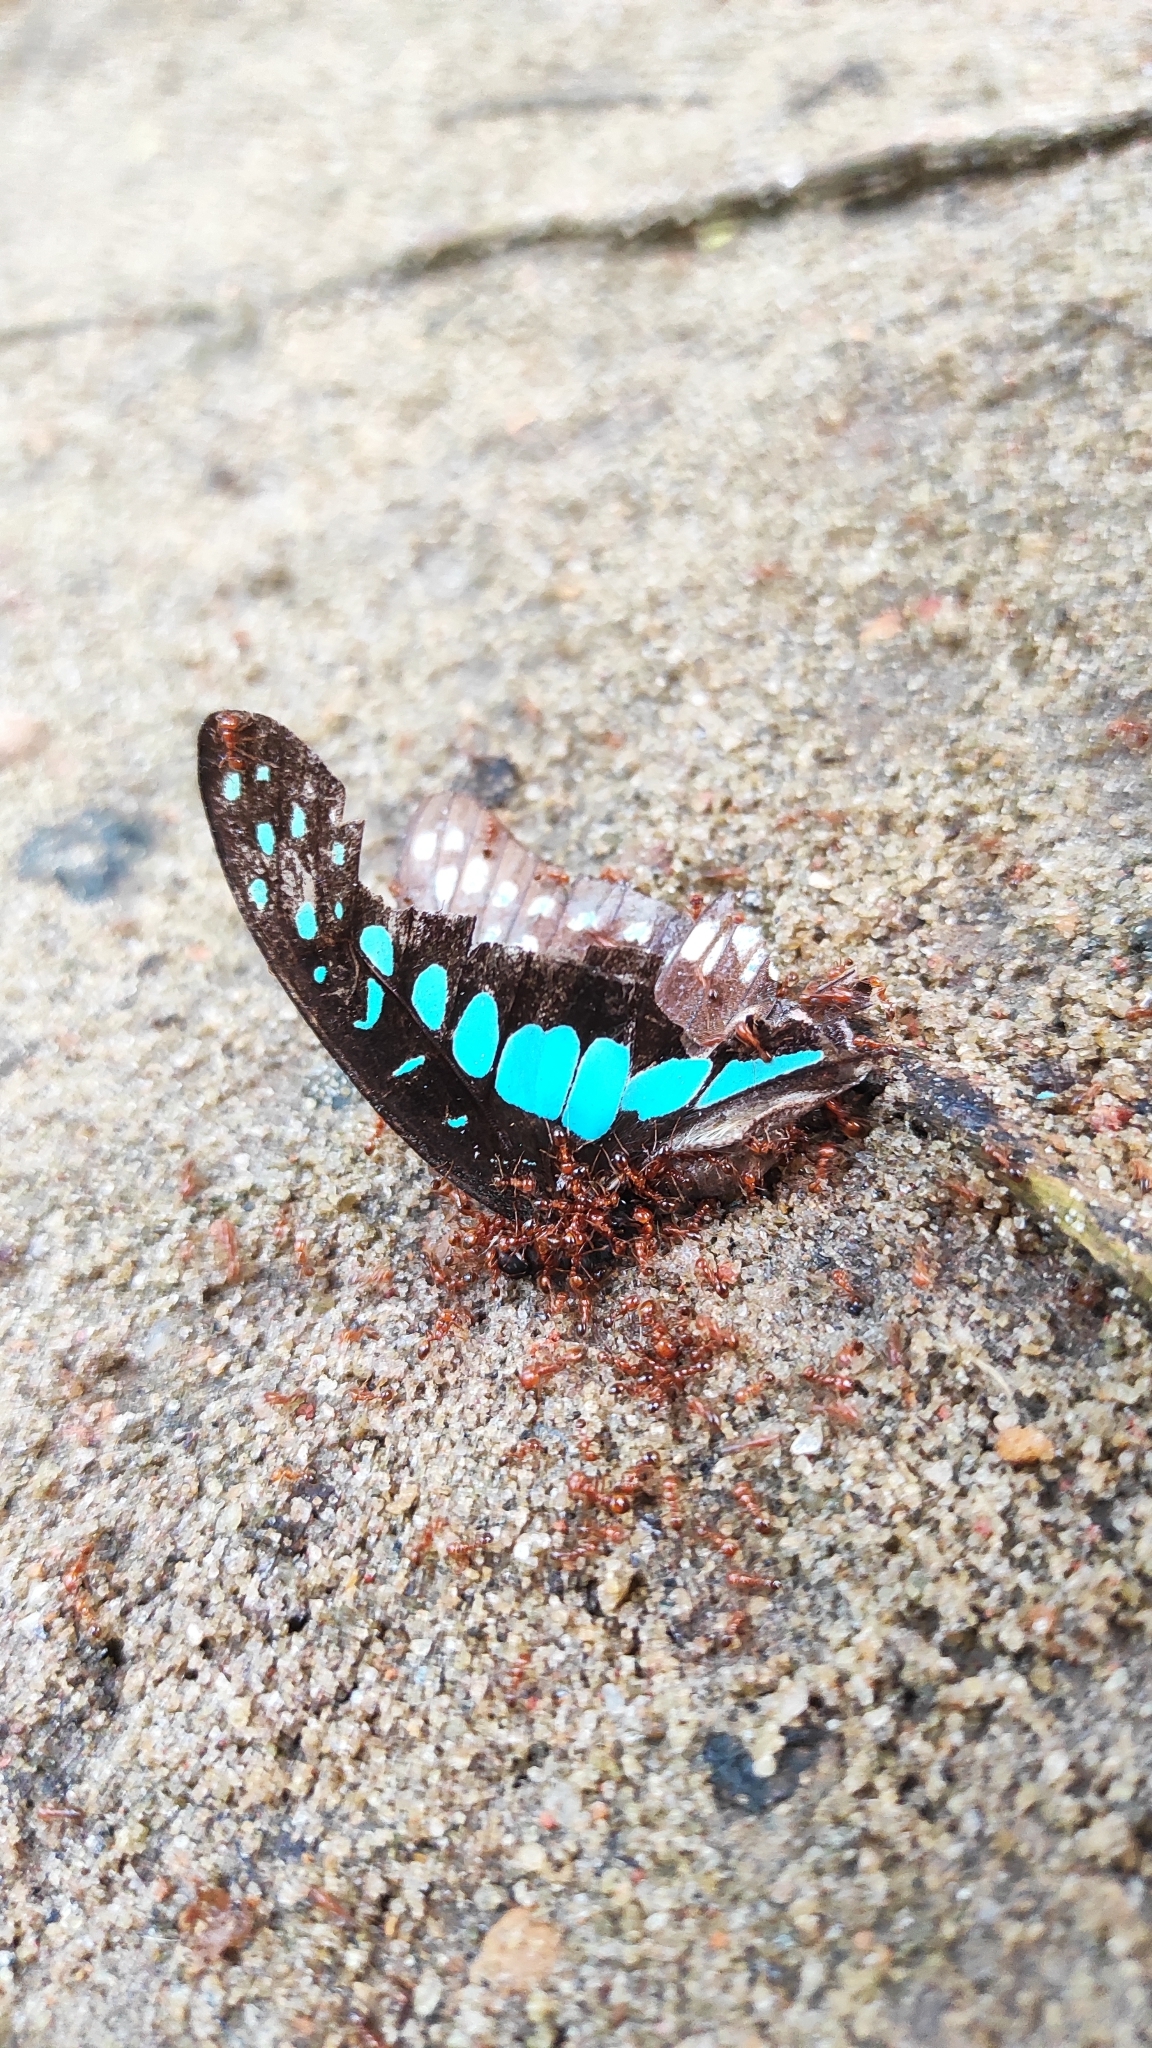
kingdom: Animalia
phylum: Arthropoda
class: Insecta
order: Lepidoptera
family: Papilionidae
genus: Graphium
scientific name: Graphium doson
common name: Common jay
